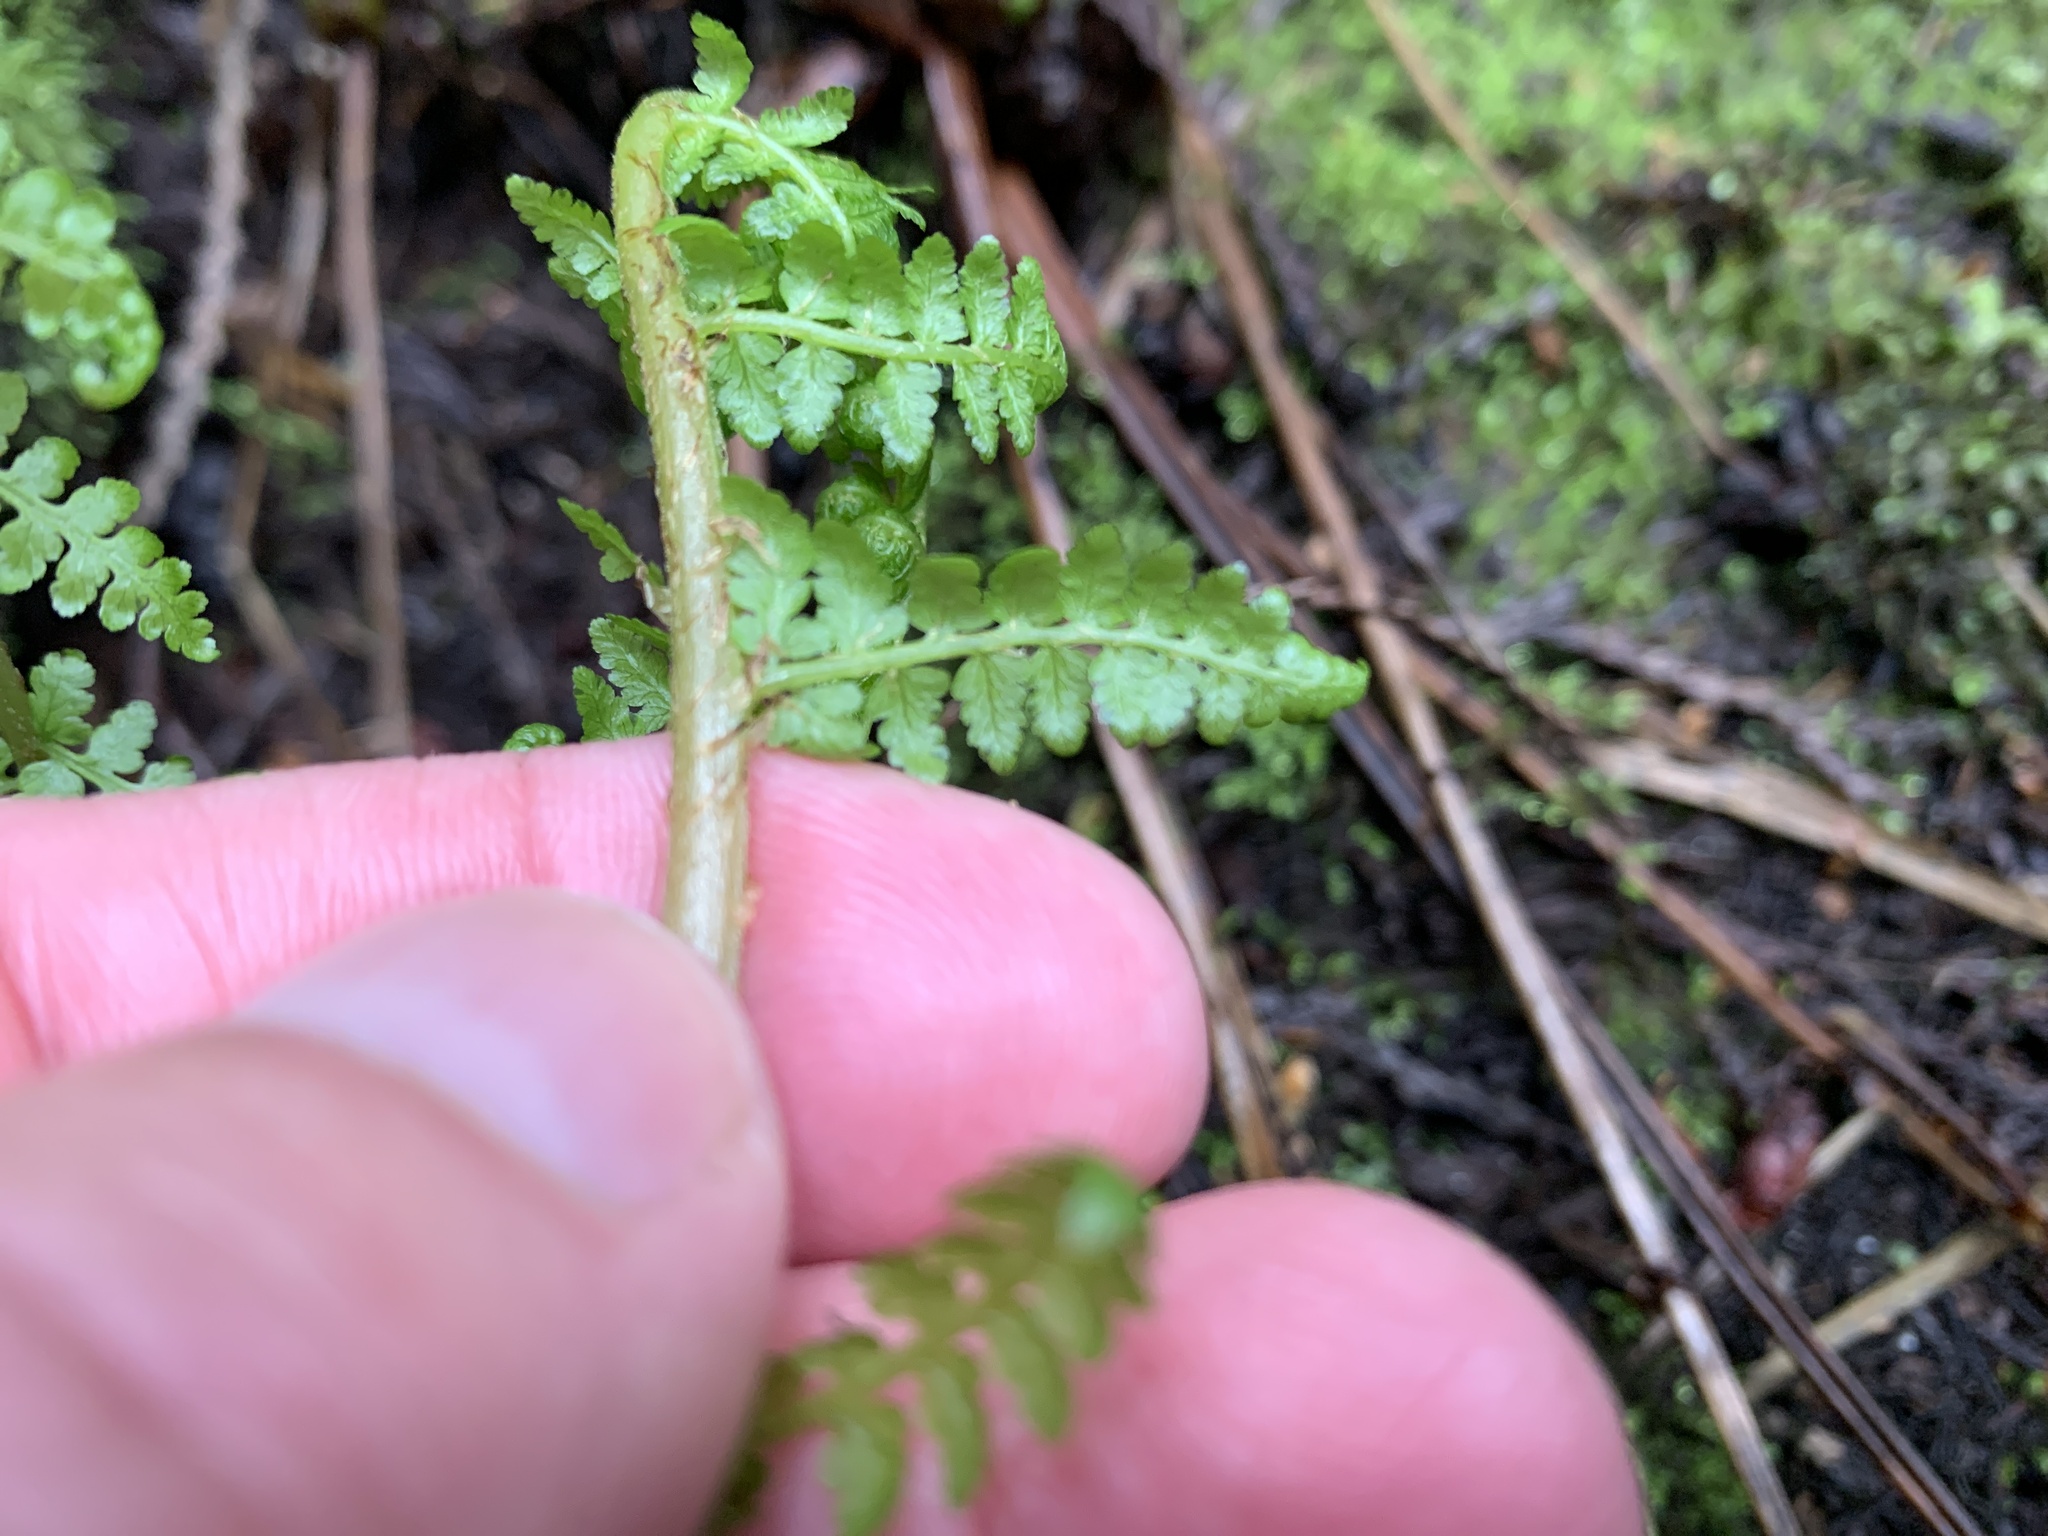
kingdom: Plantae
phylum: Tracheophyta
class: Polypodiopsida
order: Polypodiales
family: Athyriaceae
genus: Athyrium
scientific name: Athyrium filix-femina
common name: Lady fern
